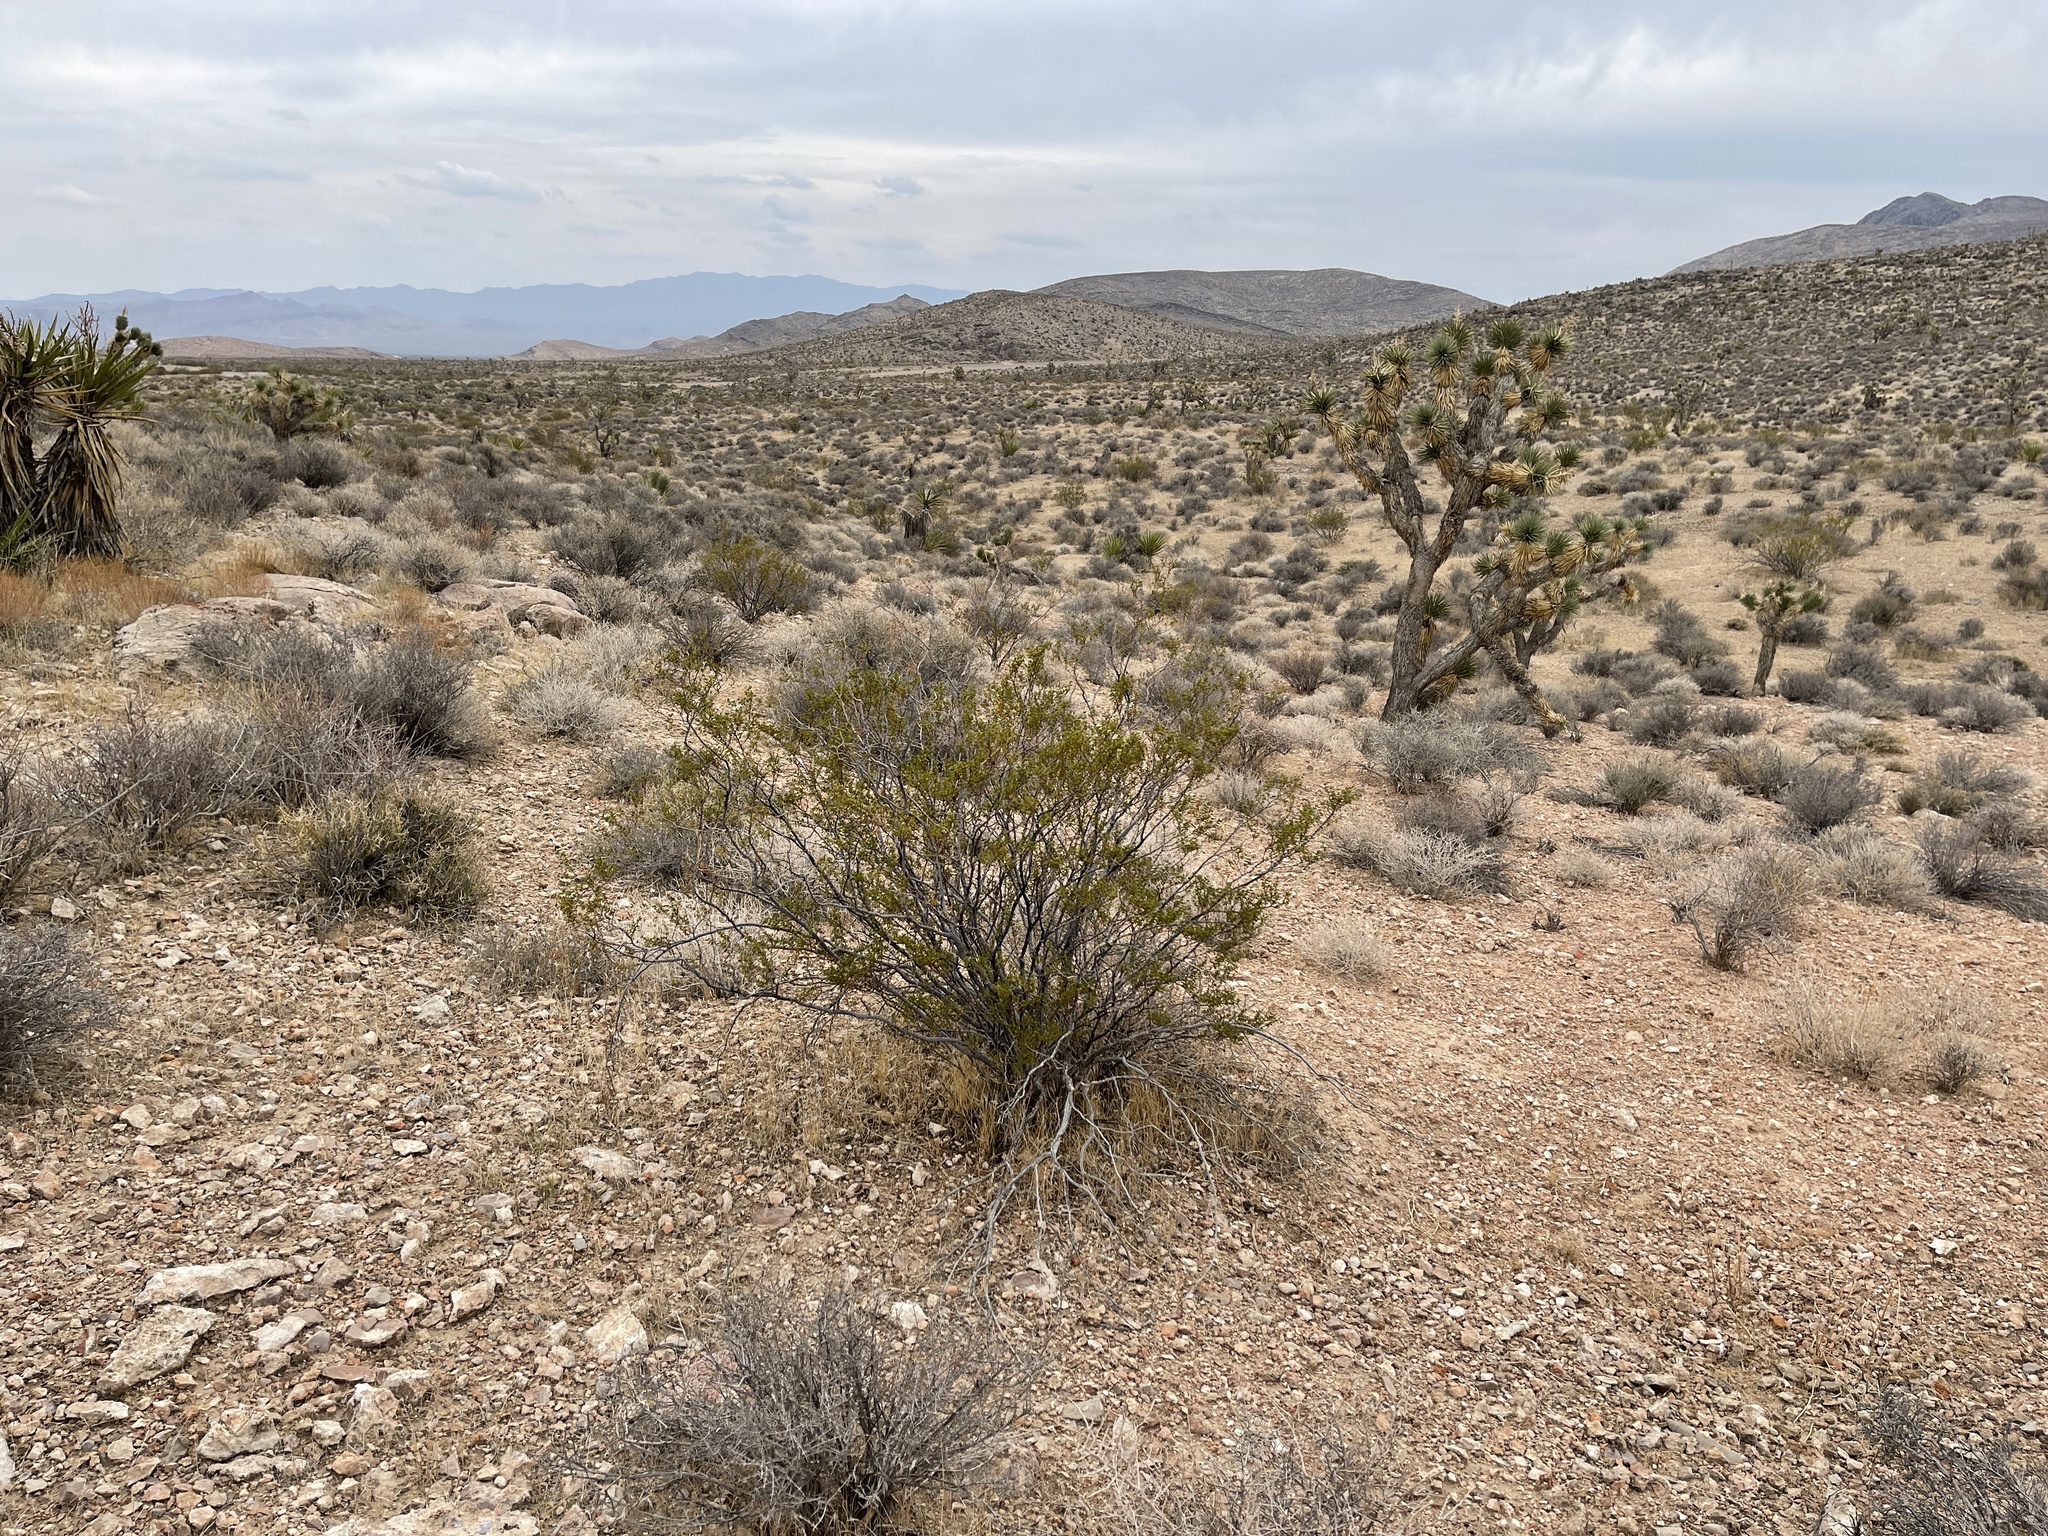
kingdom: Plantae
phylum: Tracheophyta
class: Magnoliopsida
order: Zygophyllales
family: Zygophyllaceae
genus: Larrea
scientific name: Larrea tridentata
